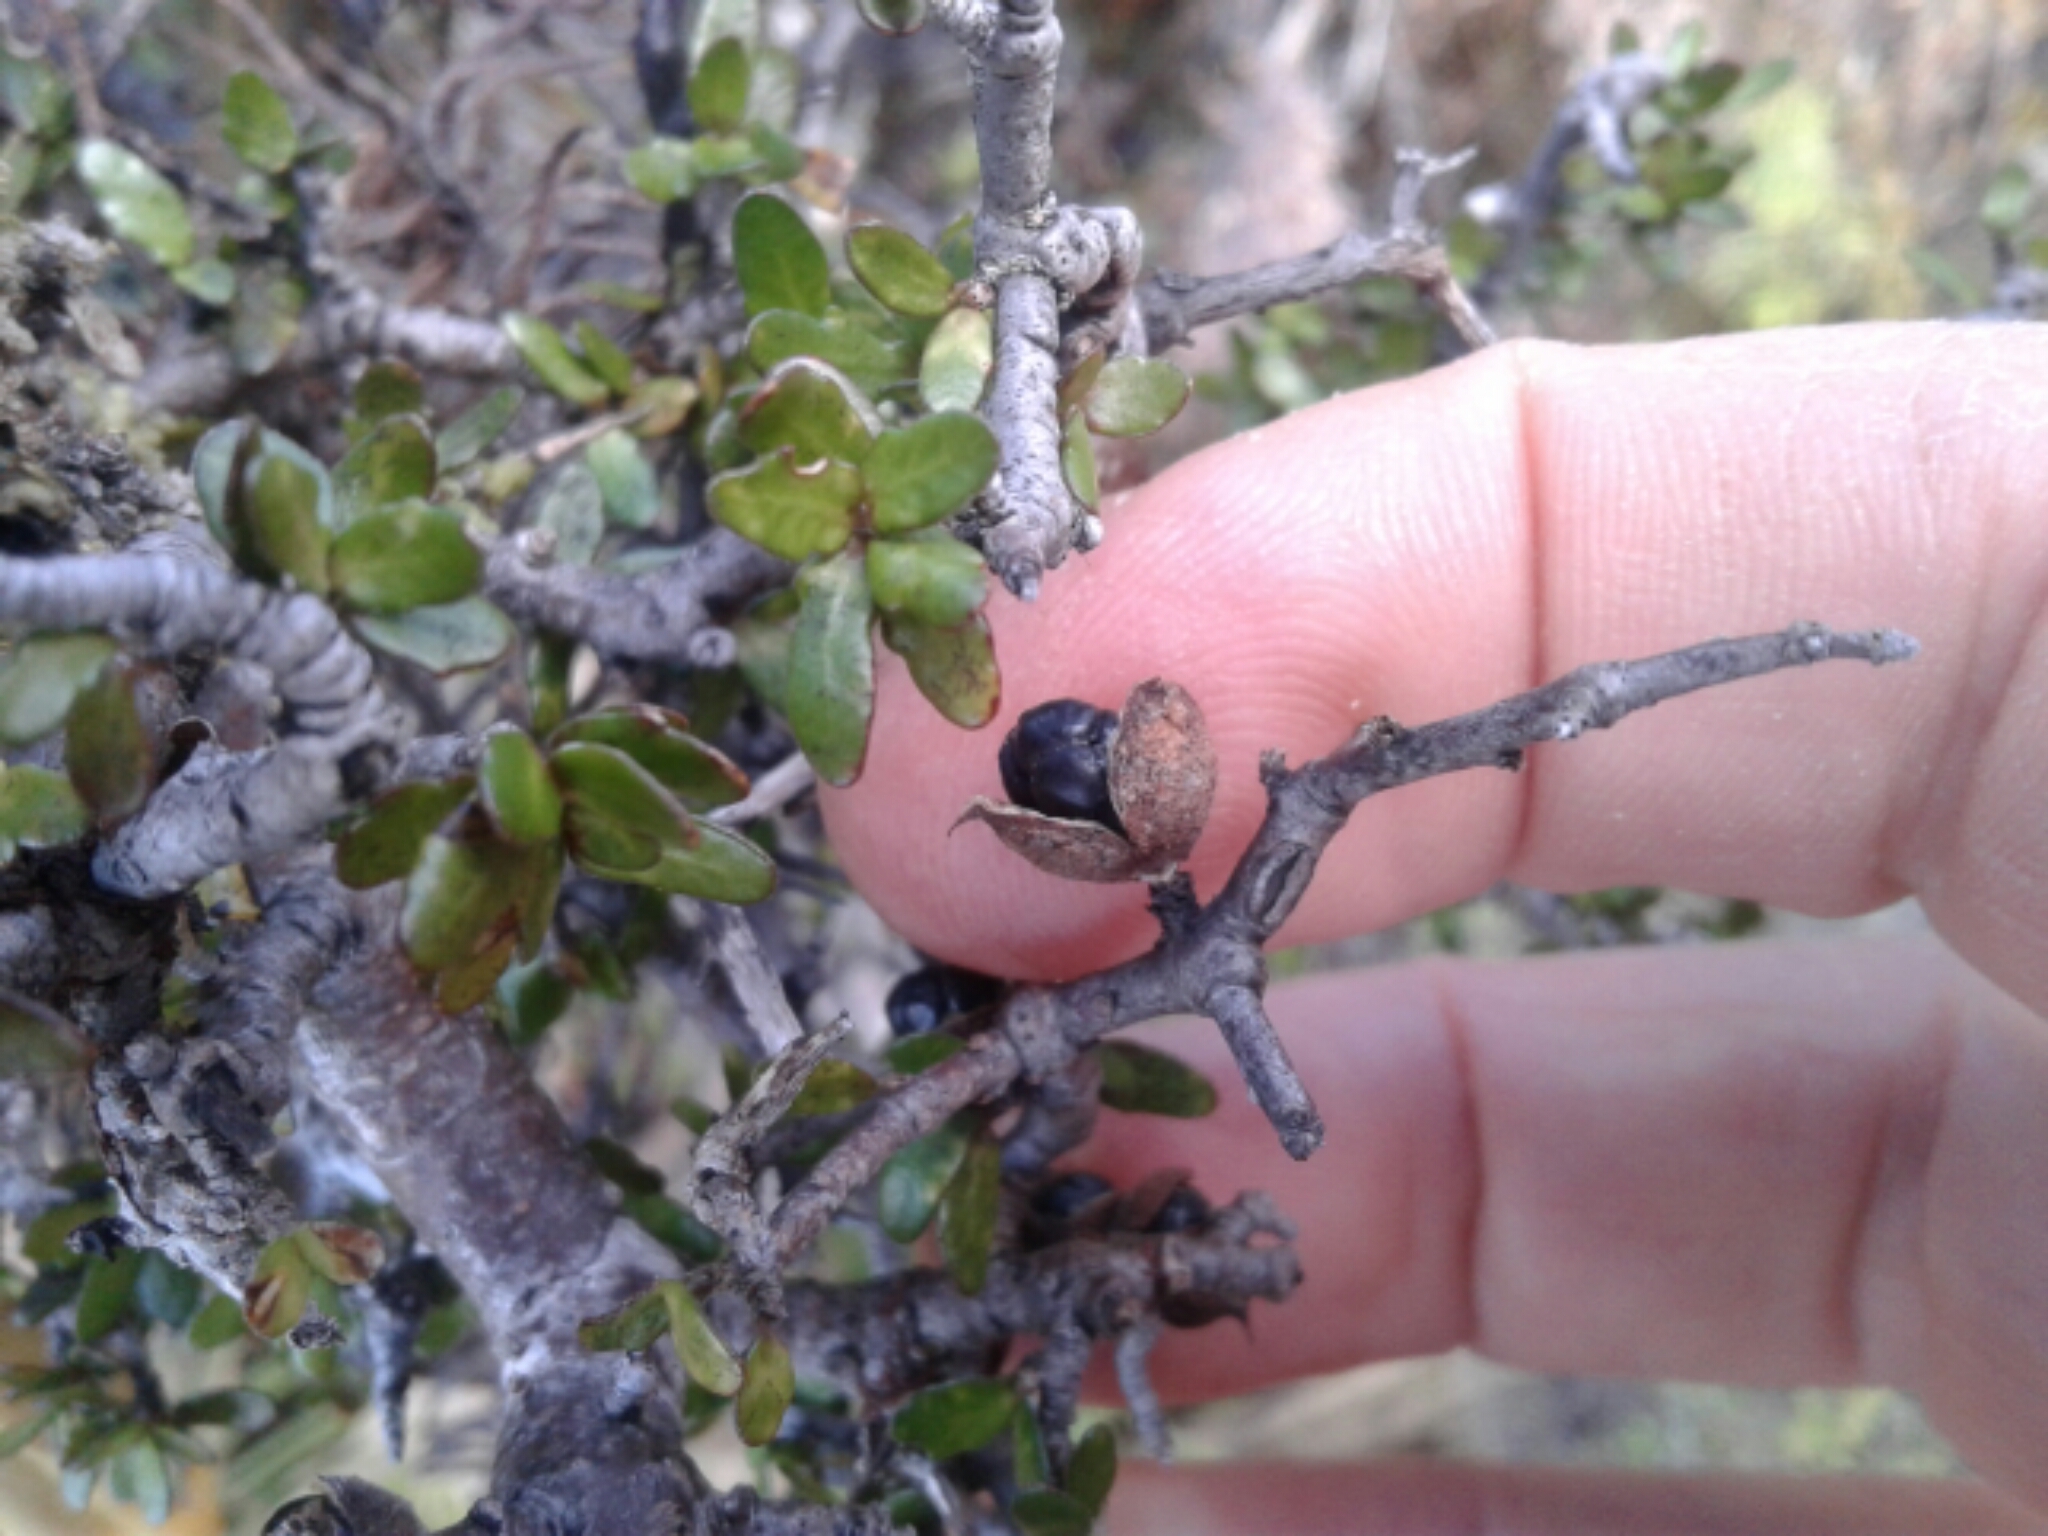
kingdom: Plantae
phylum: Tracheophyta
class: Magnoliopsida
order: Apiales
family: Pittosporaceae
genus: Pittosporum
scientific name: Pittosporum rigidum
